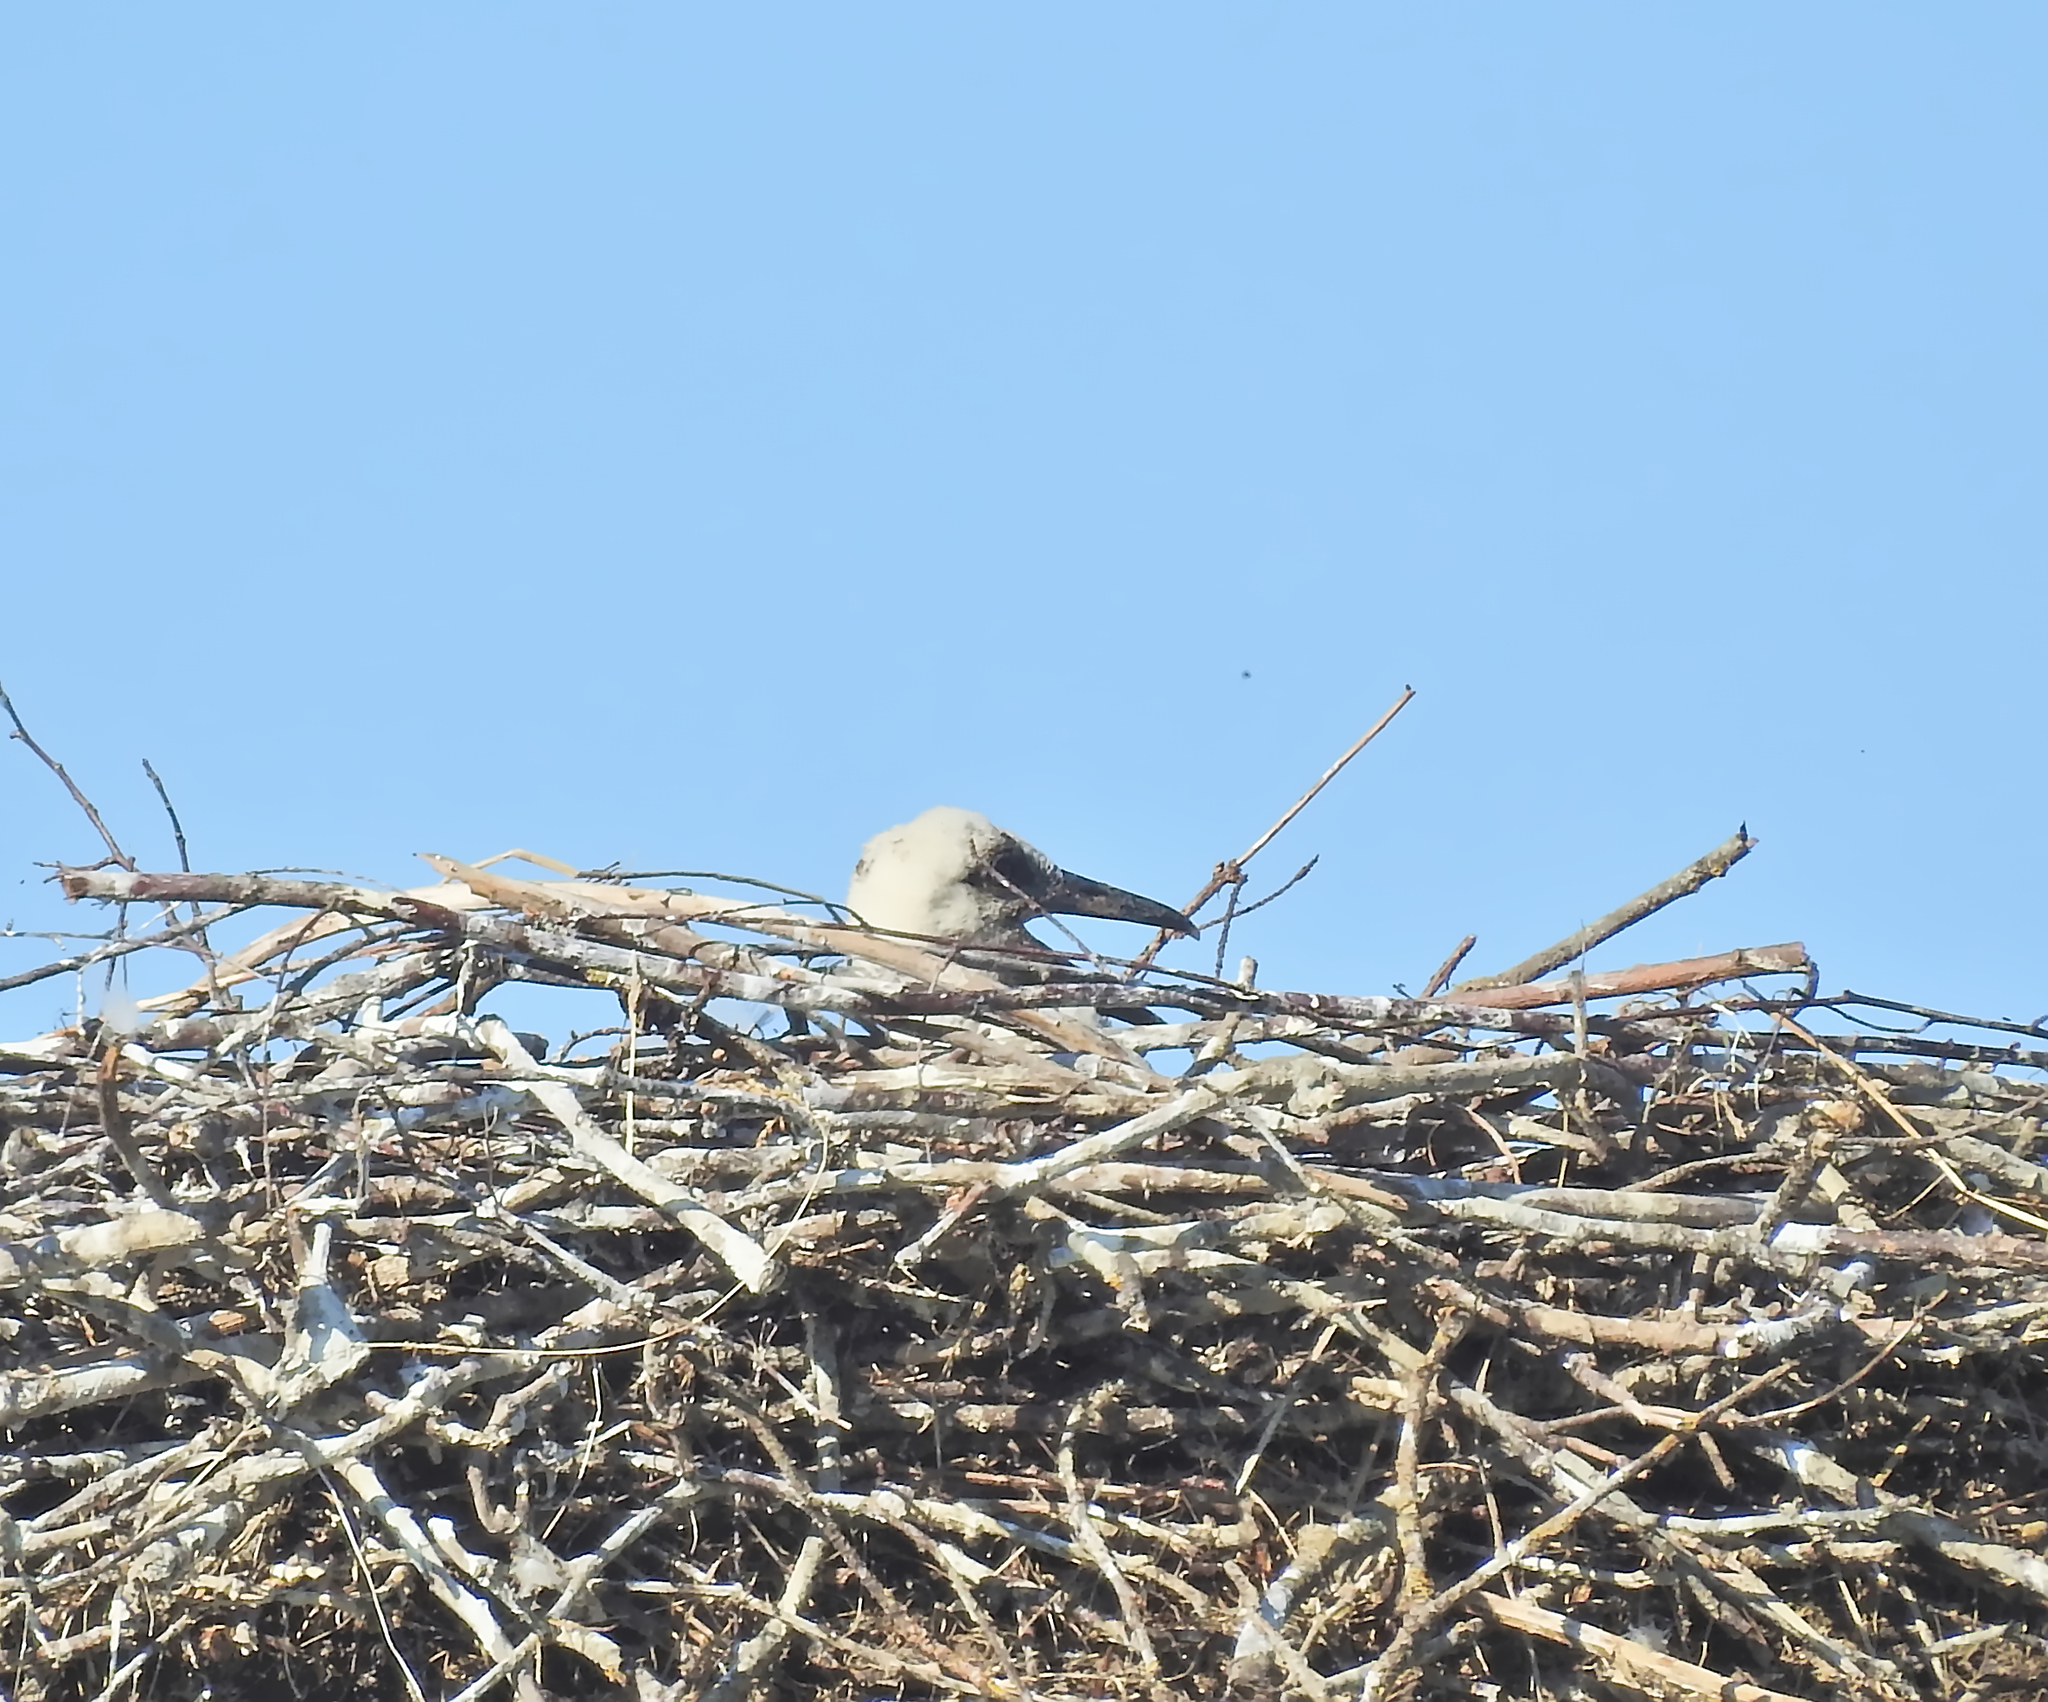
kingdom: Animalia
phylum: Chordata
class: Aves
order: Ciconiiformes
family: Ciconiidae
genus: Ciconia
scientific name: Ciconia ciconia
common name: White stork
